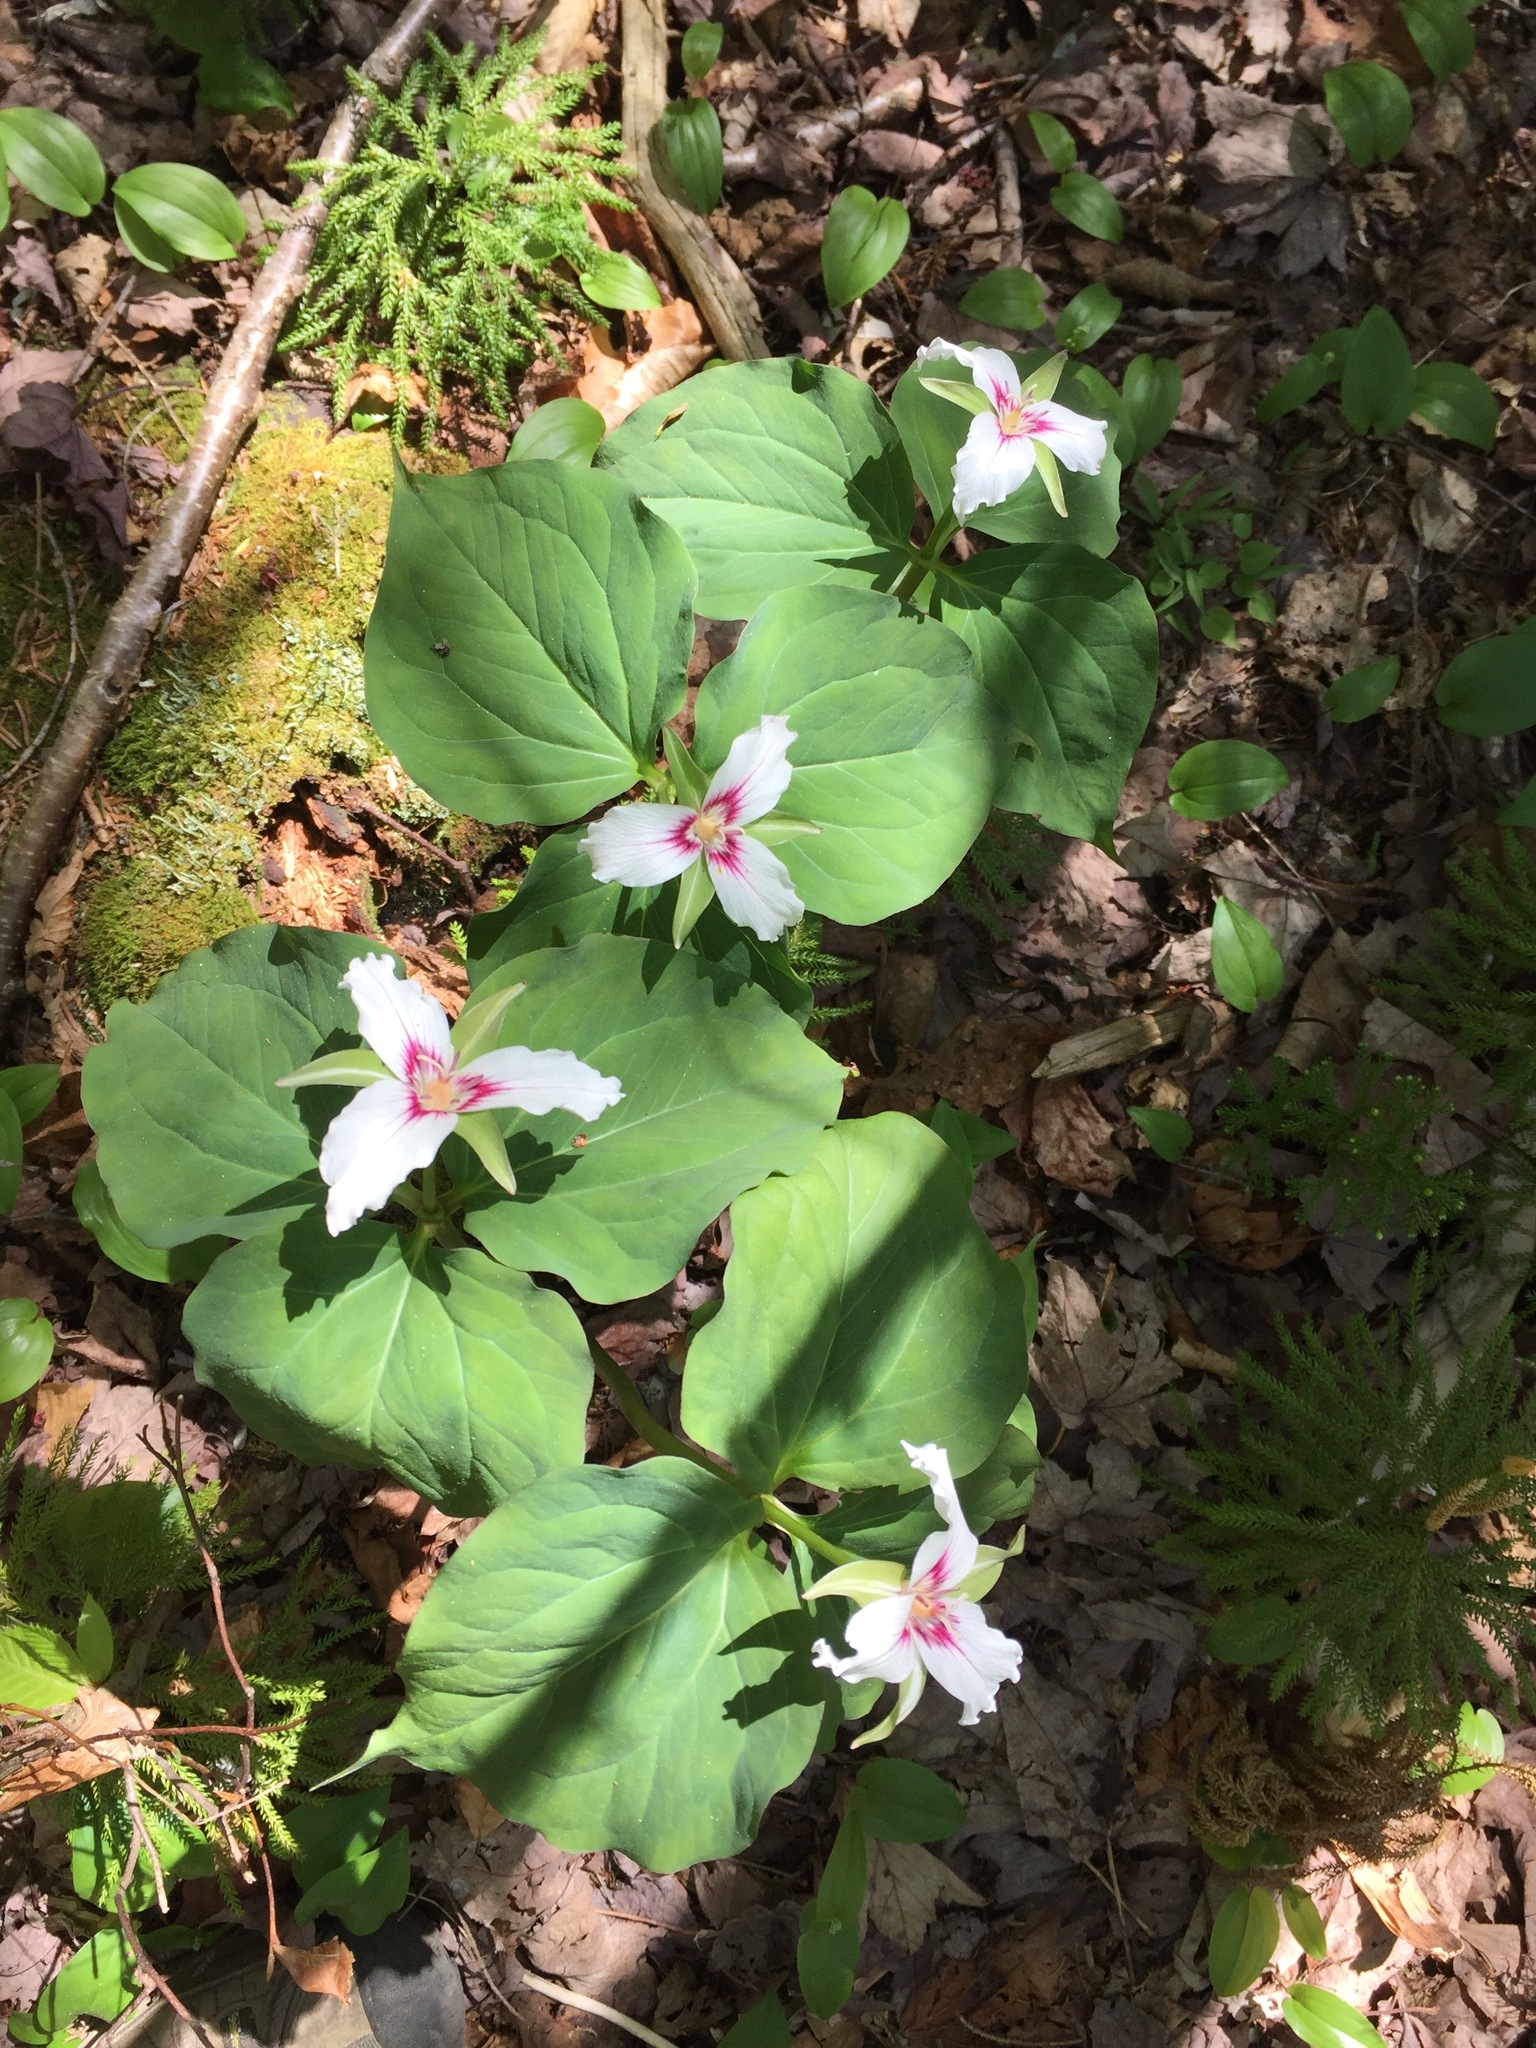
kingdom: Plantae
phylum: Tracheophyta
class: Liliopsida
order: Liliales
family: Melanthiaceae
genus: Trillium
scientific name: Trillium undulatum
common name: Paint trillium
